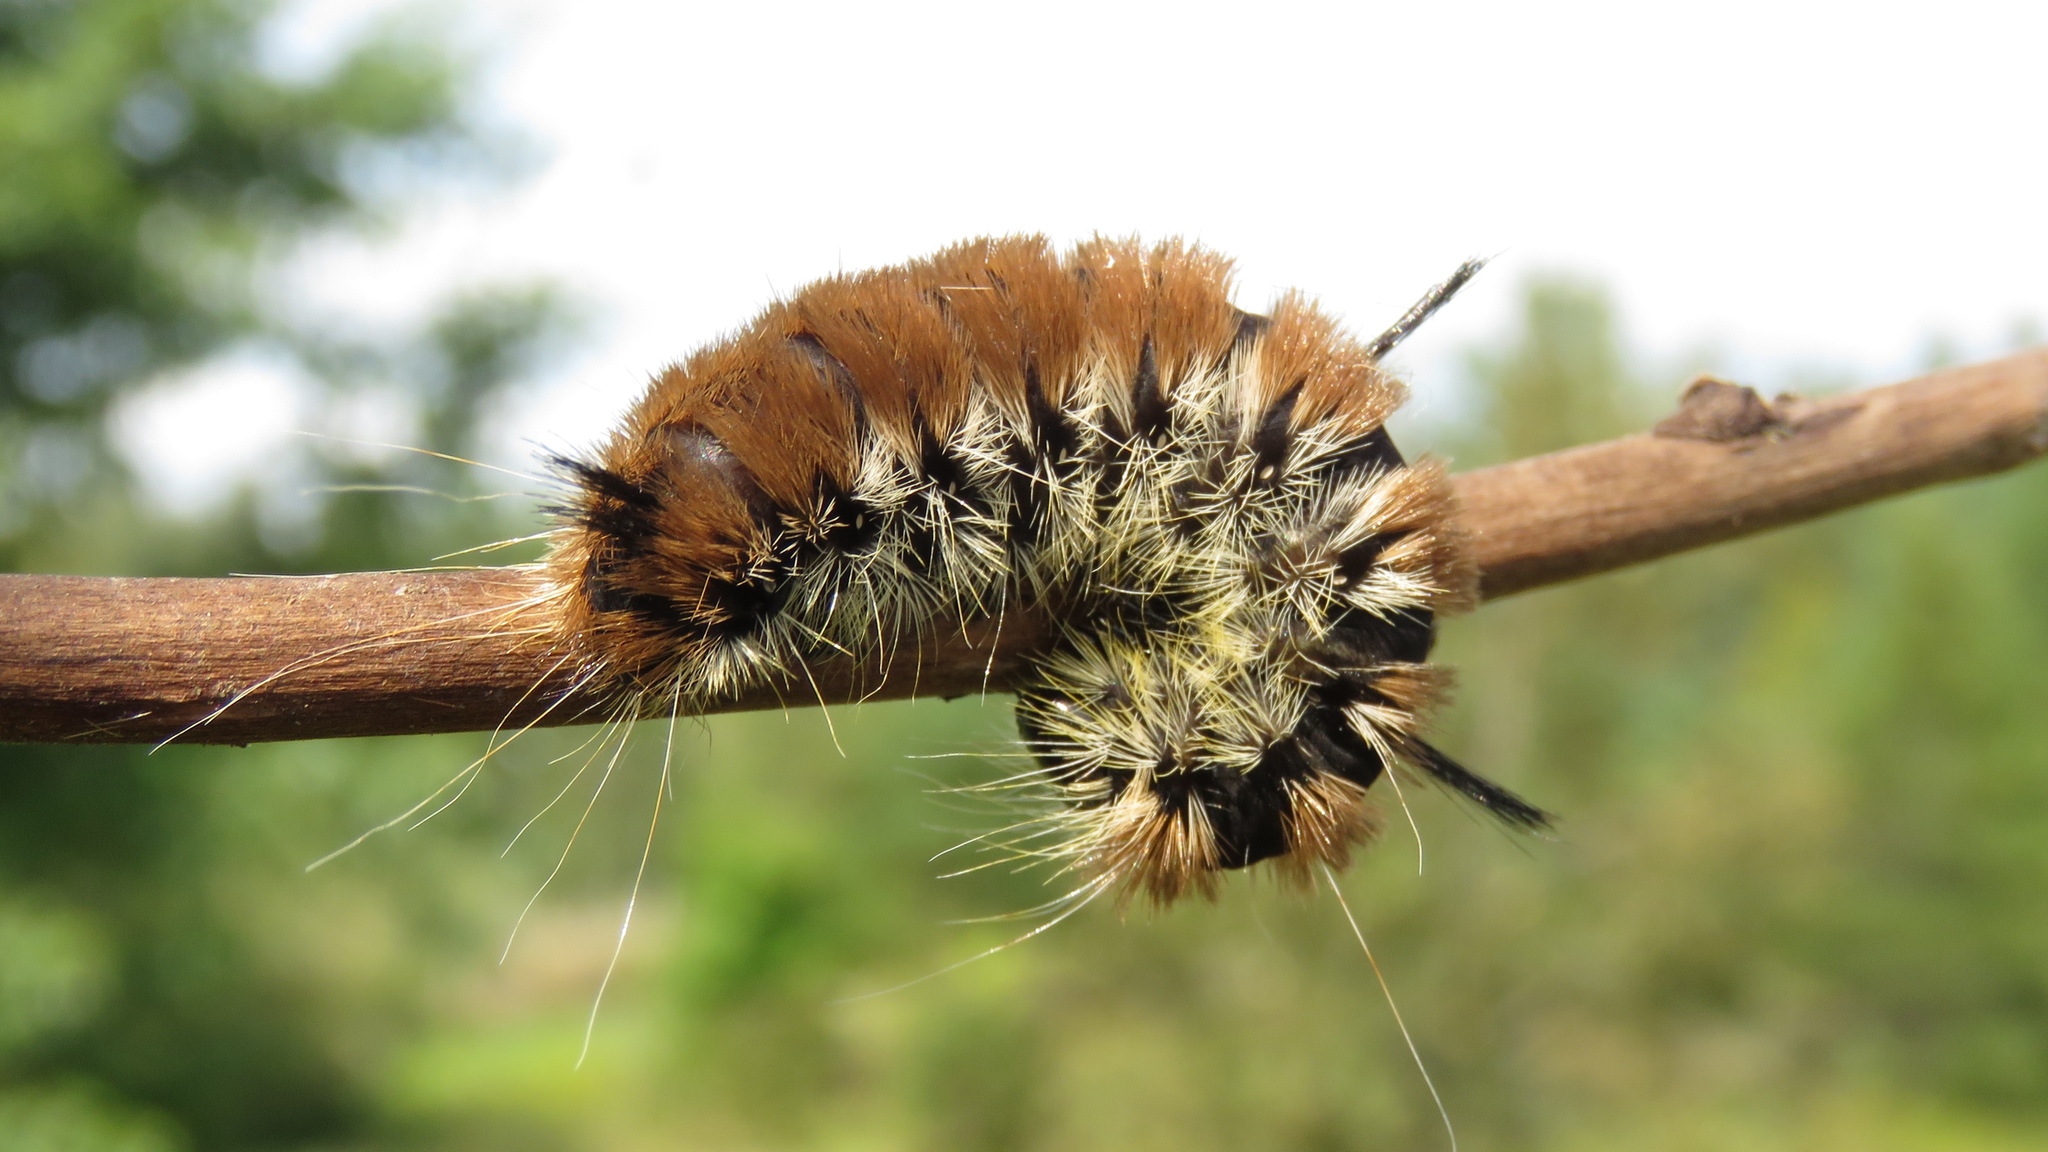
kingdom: Animalia
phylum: Arthropoda
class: Insecta
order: Lepidoptera
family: Noctuidae
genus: Acronicta
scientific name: Acronicta insita
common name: Large gray dagger
